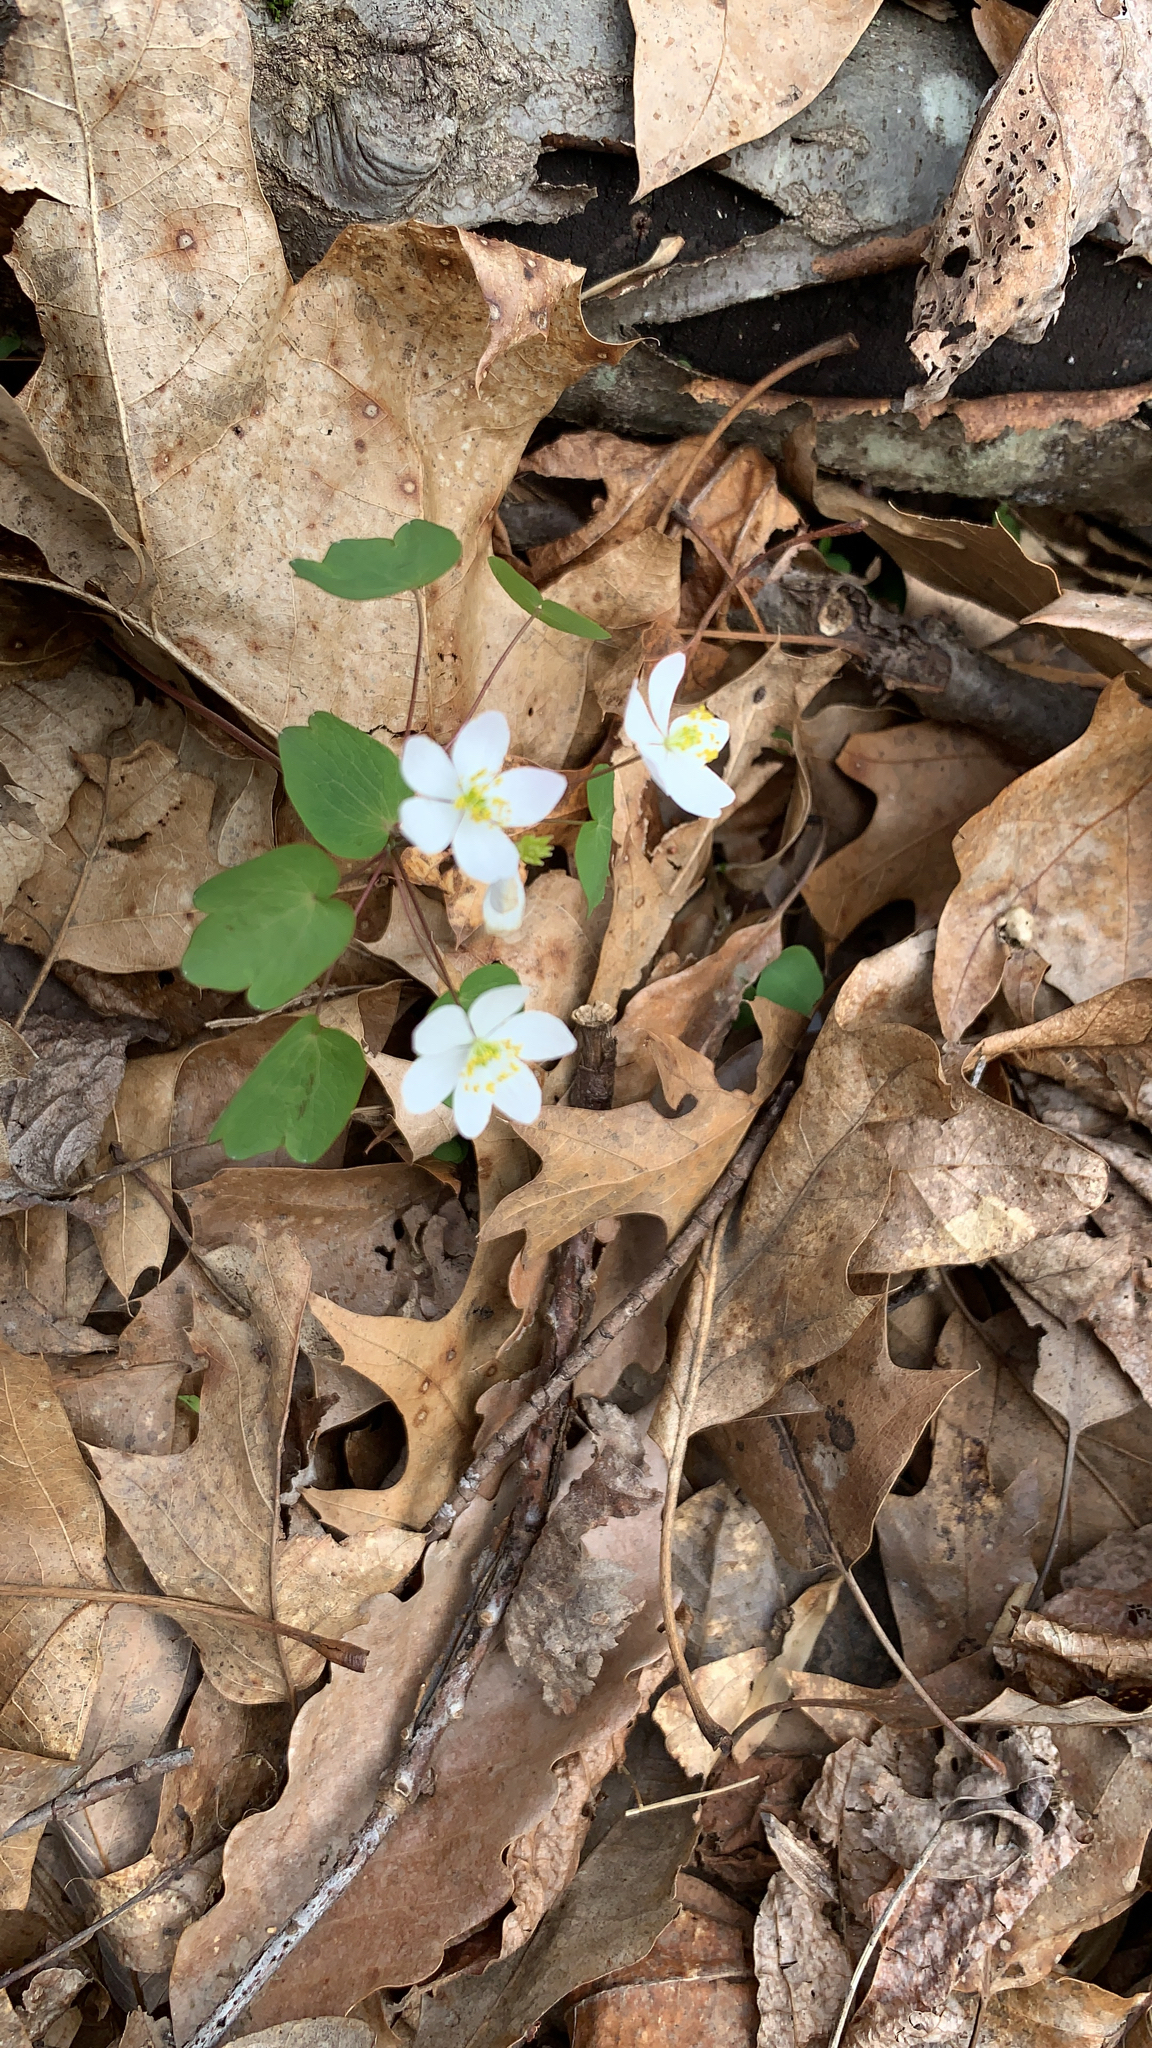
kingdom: Plantae
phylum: Tracheophyta
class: Magnoliopsida
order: Ranunculales
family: Ranunculaceae
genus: Thalictrum
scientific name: Thalictrum thalictroides
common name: Rue-anemone
